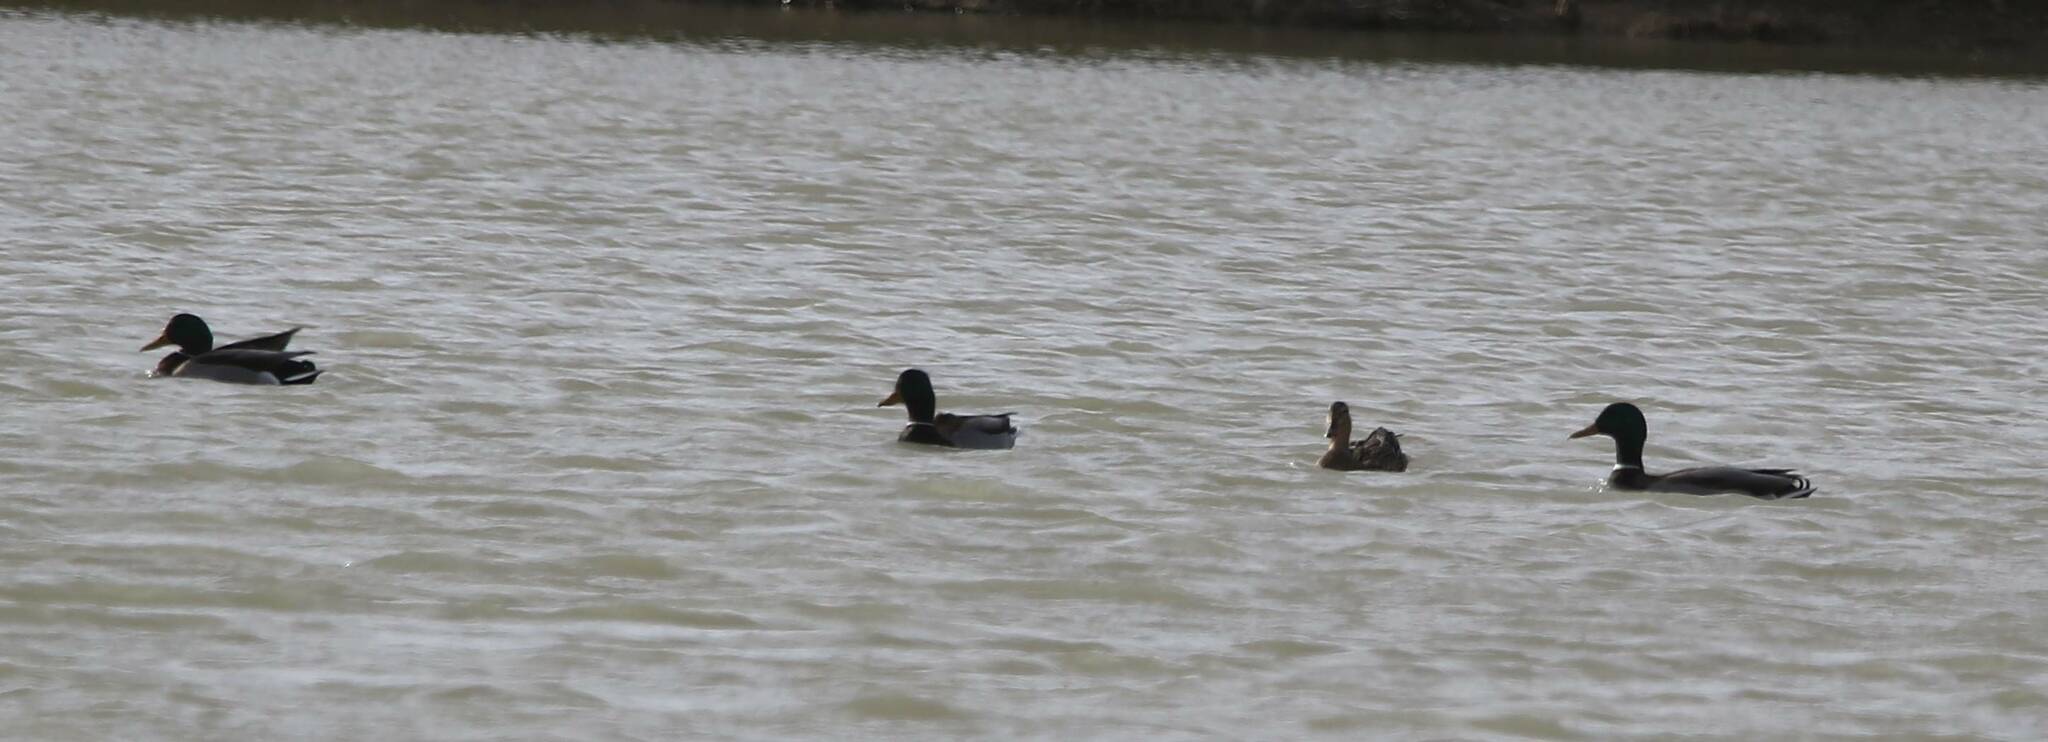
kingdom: Animalia
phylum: Chordata
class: Aves
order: Anseriformes
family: Anatidae
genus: Anas
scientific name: Anas platyrhynchos
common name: Mallard
